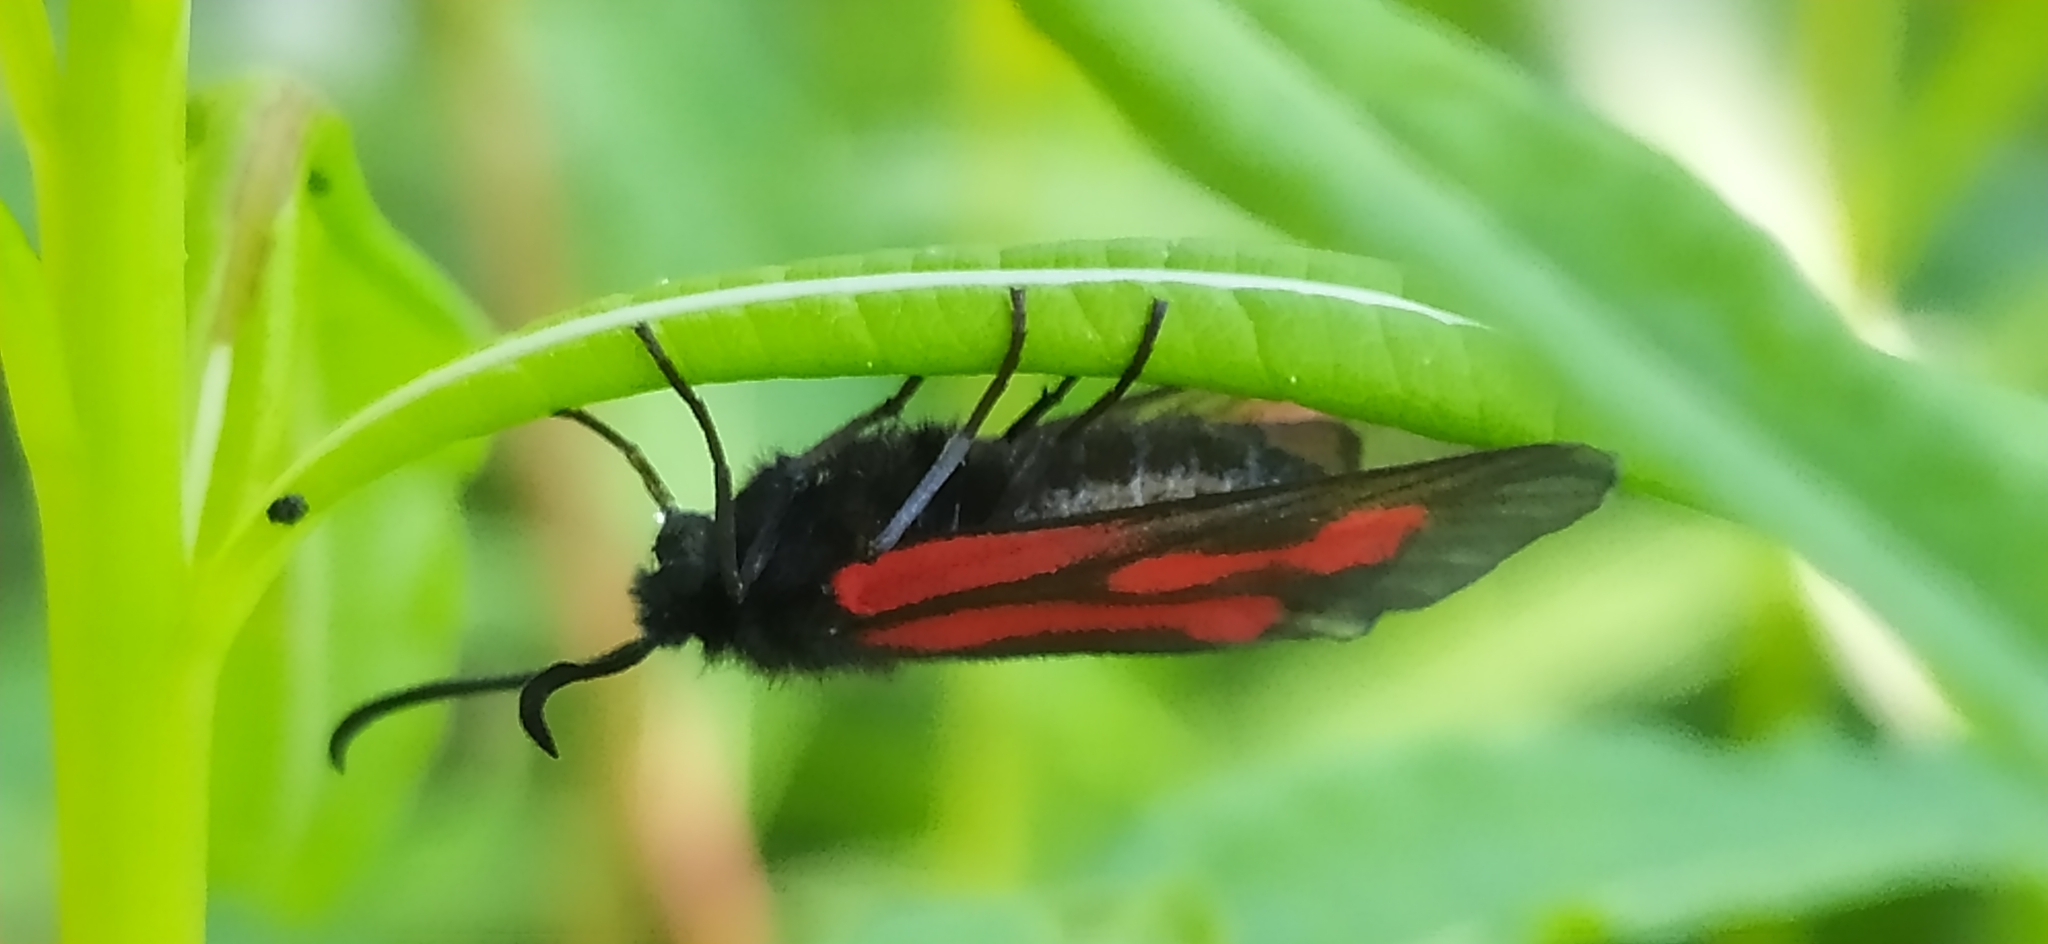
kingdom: Animalia
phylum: Arthropoda
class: Insecta
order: Lepidoptera
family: Zygaenidae
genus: Zygaena
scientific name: Zygaena osterodensis
